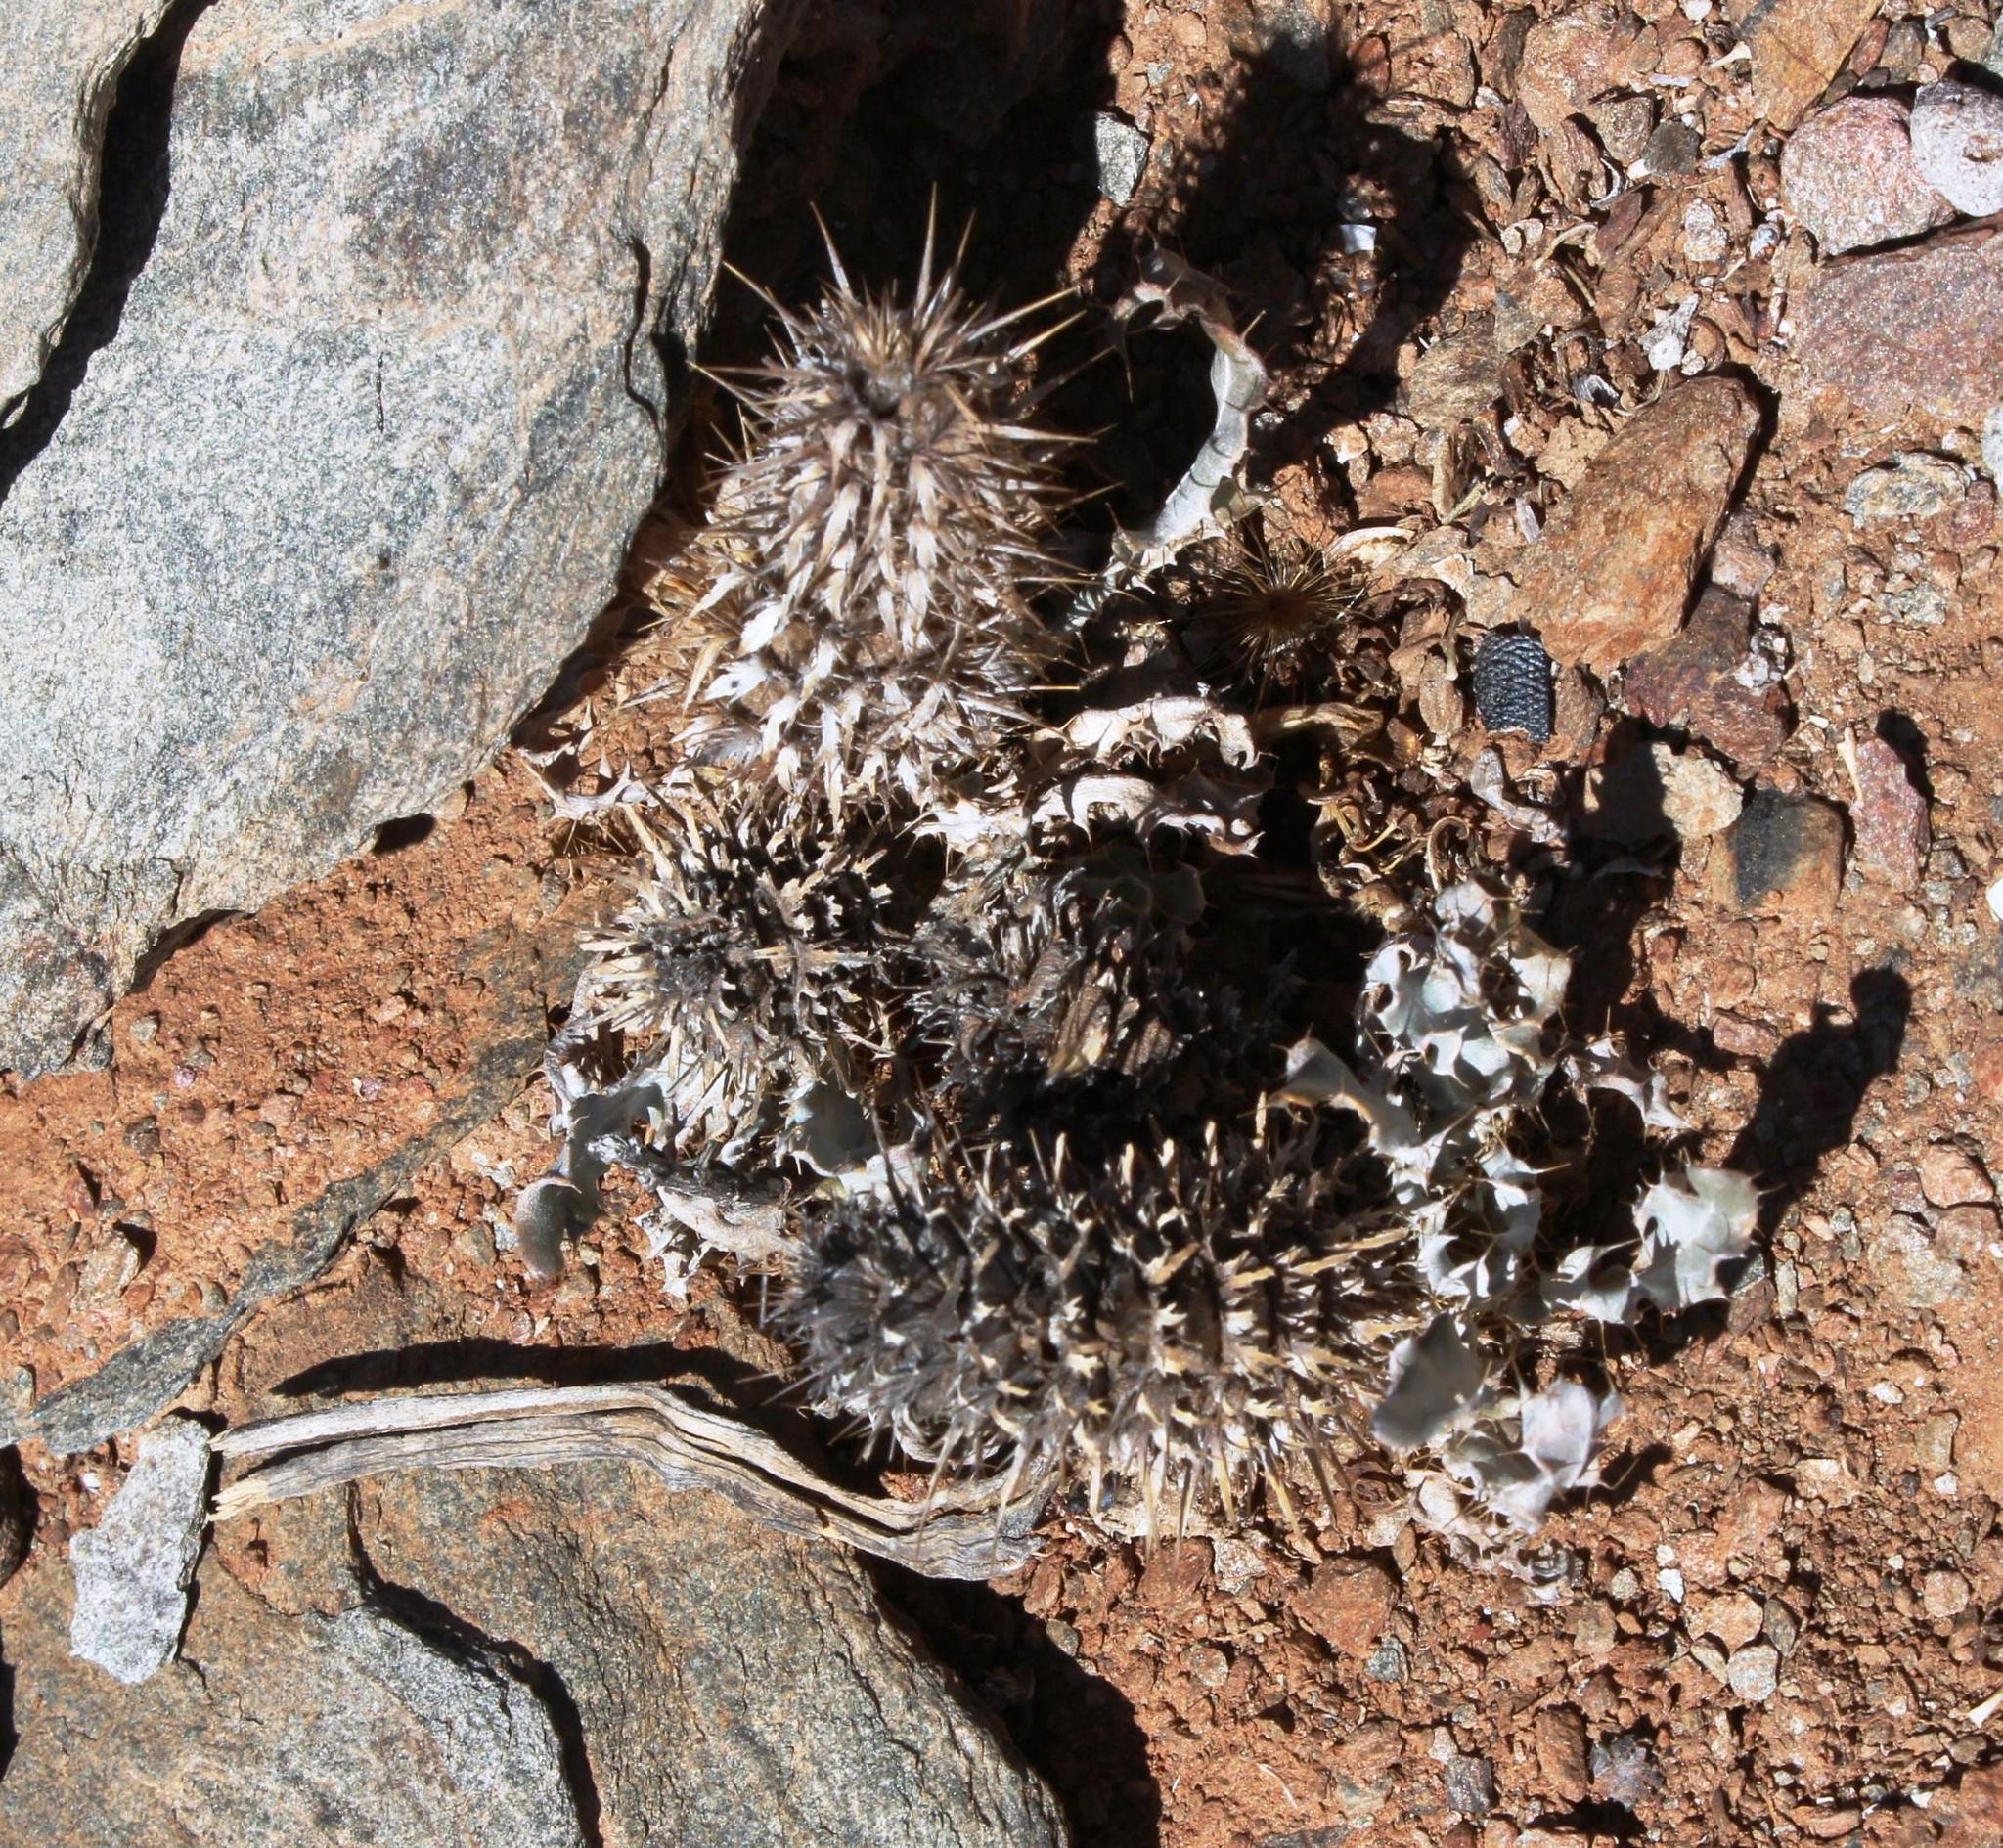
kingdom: Plantae
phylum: Tracheophyta
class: Magnoliopsida
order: Lamiales
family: Acanthaceae
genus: Acanthopsis
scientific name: Acanthopsis ludoviciana
